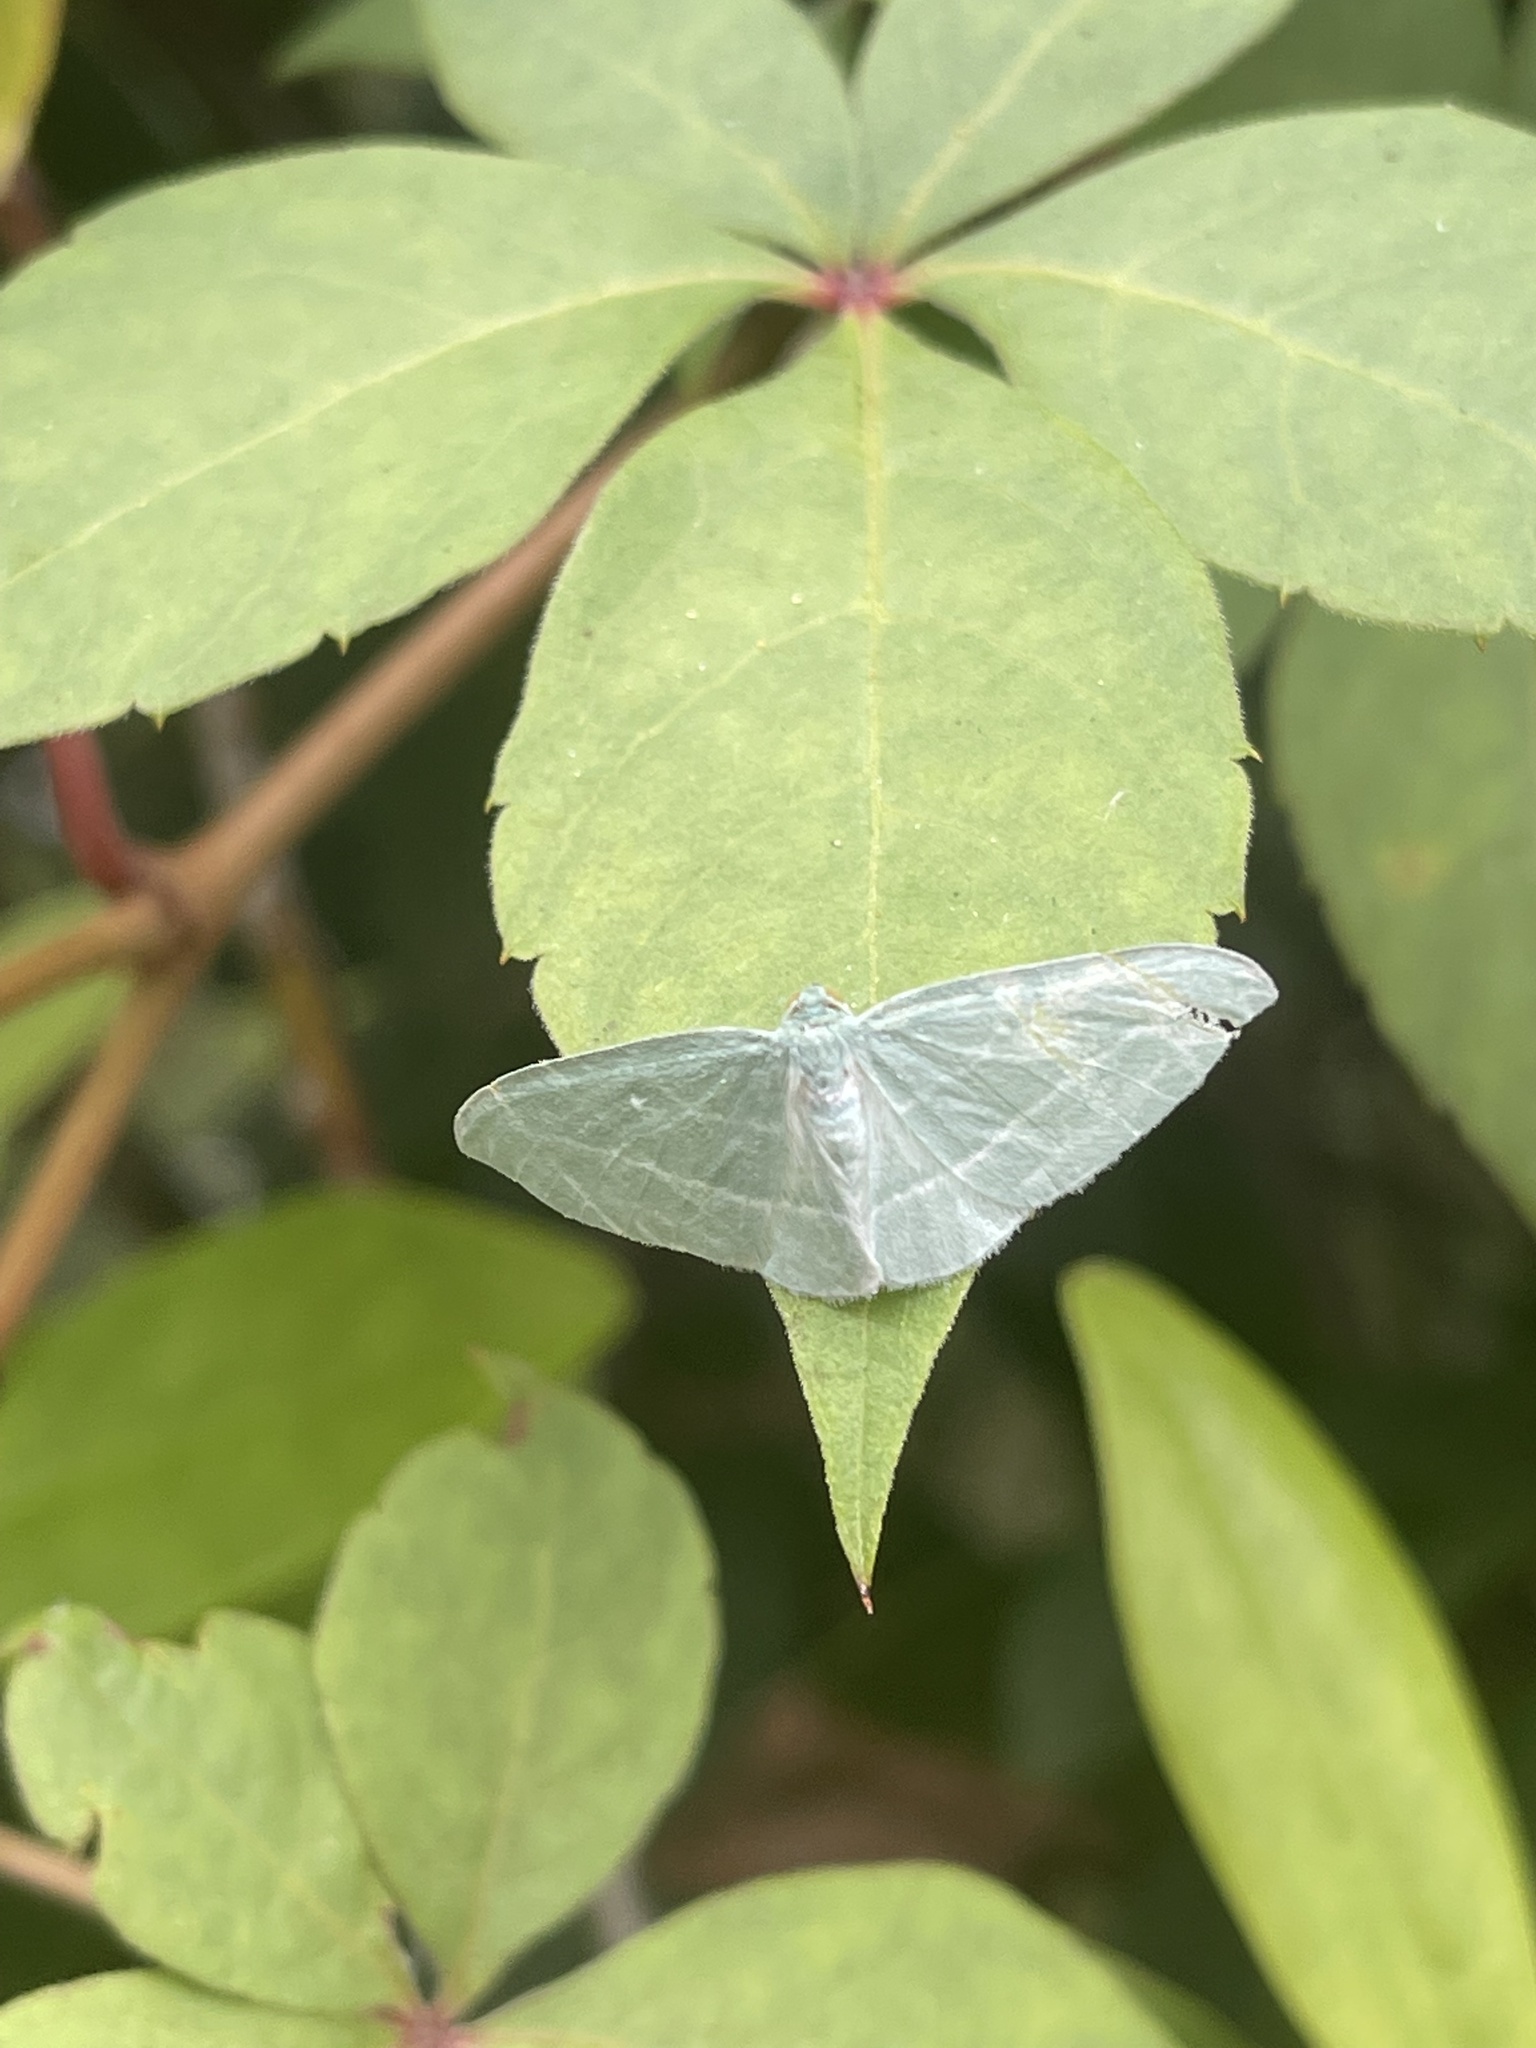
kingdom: Animalia
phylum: Arthropoda
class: Insecta
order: Lepidoptera
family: Geometridae
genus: Dyspteris
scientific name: Dyspteris abortivaria
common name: Bad-wing
